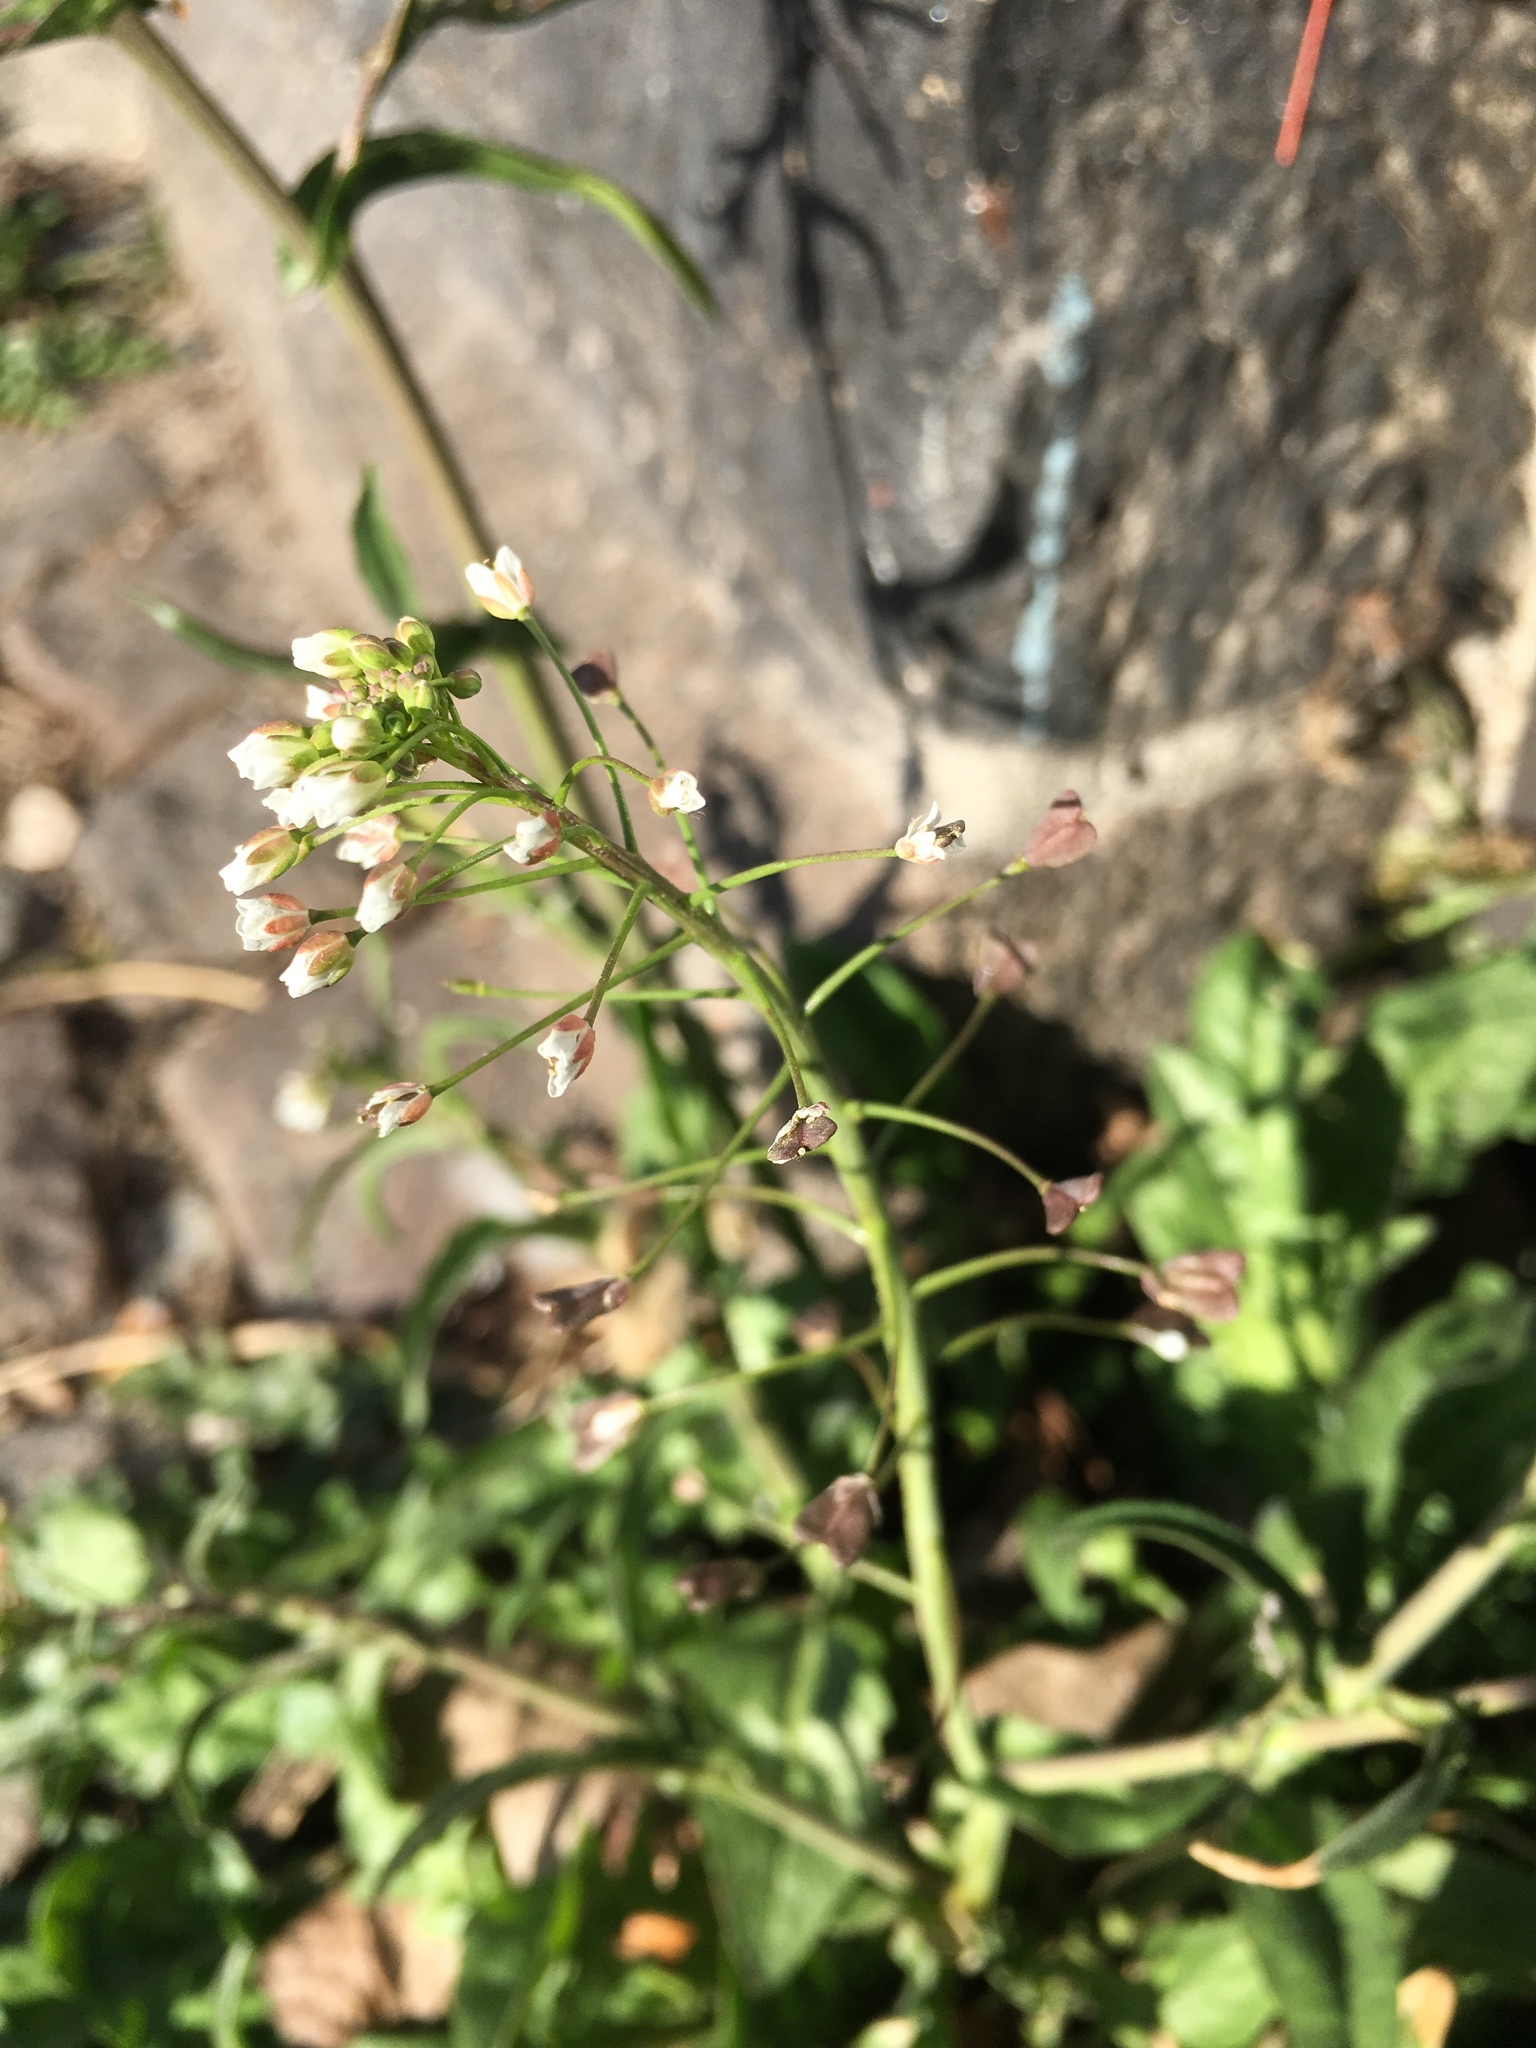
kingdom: Plantae
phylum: Tracheophyta
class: Magnoliopsida
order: Brassicales
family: Brassicaceae
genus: Capsella
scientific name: Capsella bursa-pastoris
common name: Shepherd's purse
